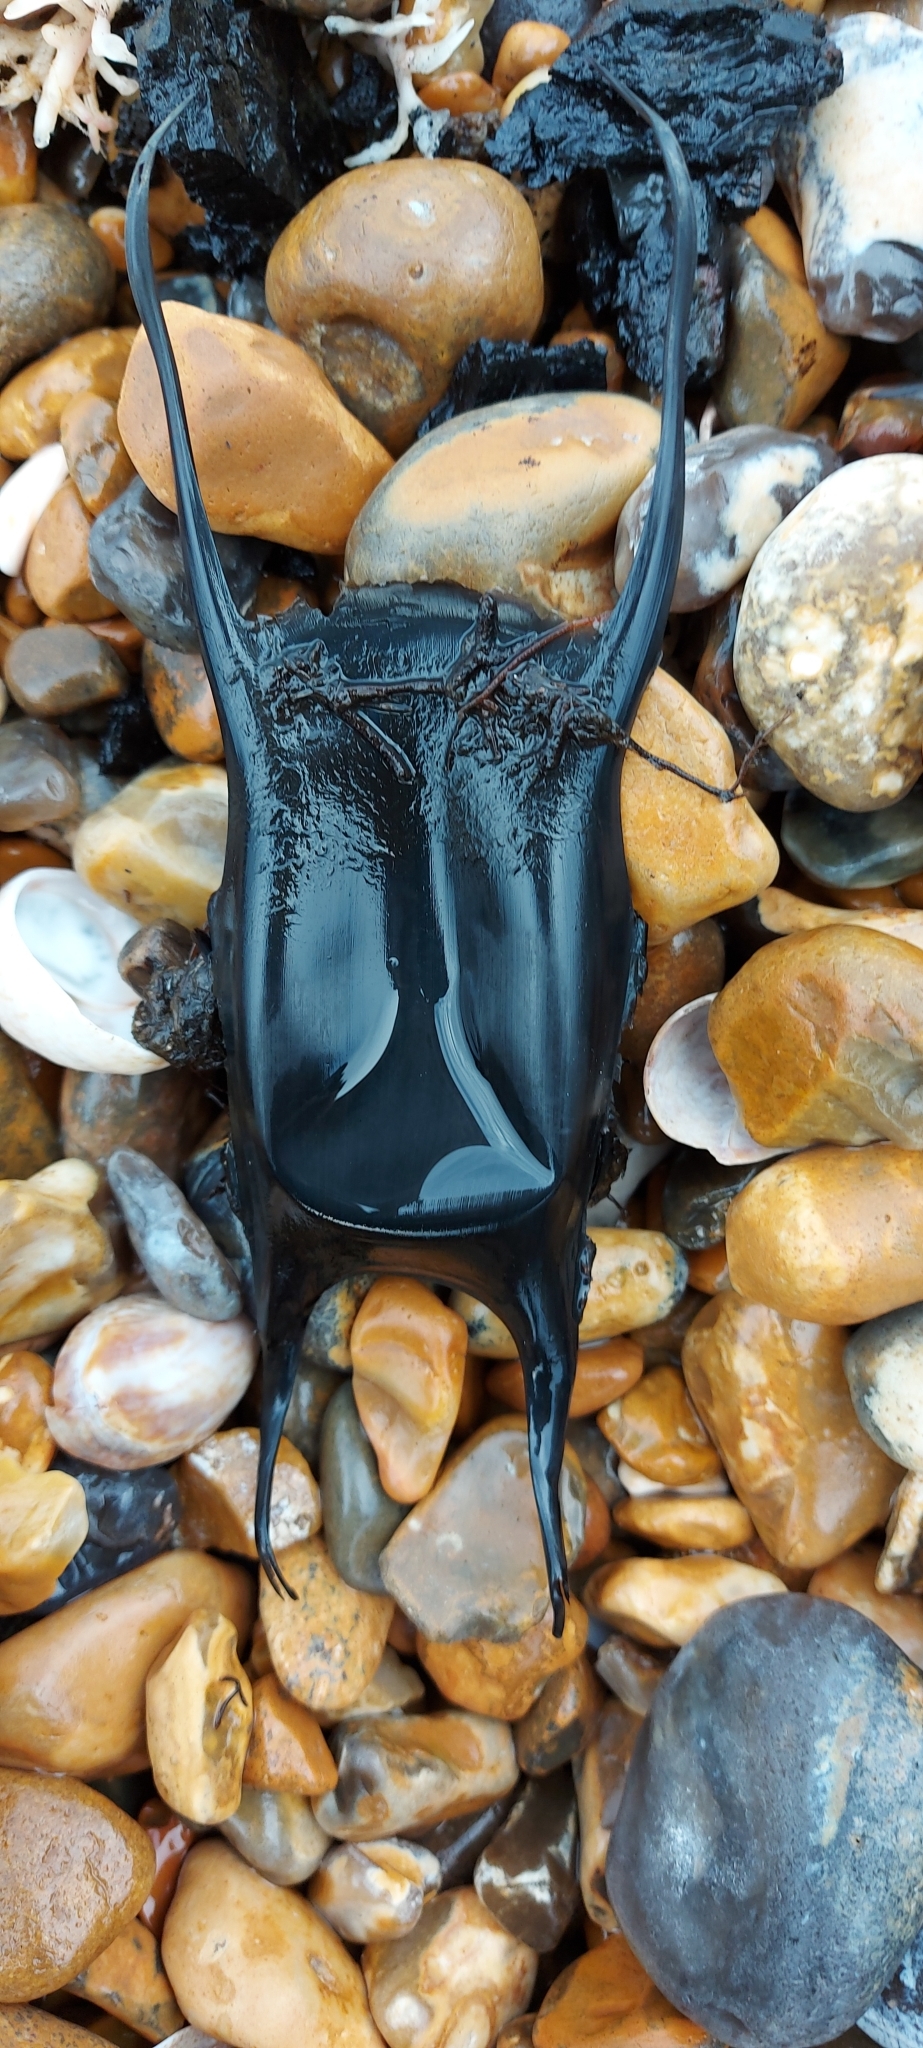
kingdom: Animalia
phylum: Chordata
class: Elasmobranchii
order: Rajiformes
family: Rajidae
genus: Raja
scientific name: Raja undulata
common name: Undulate ray
